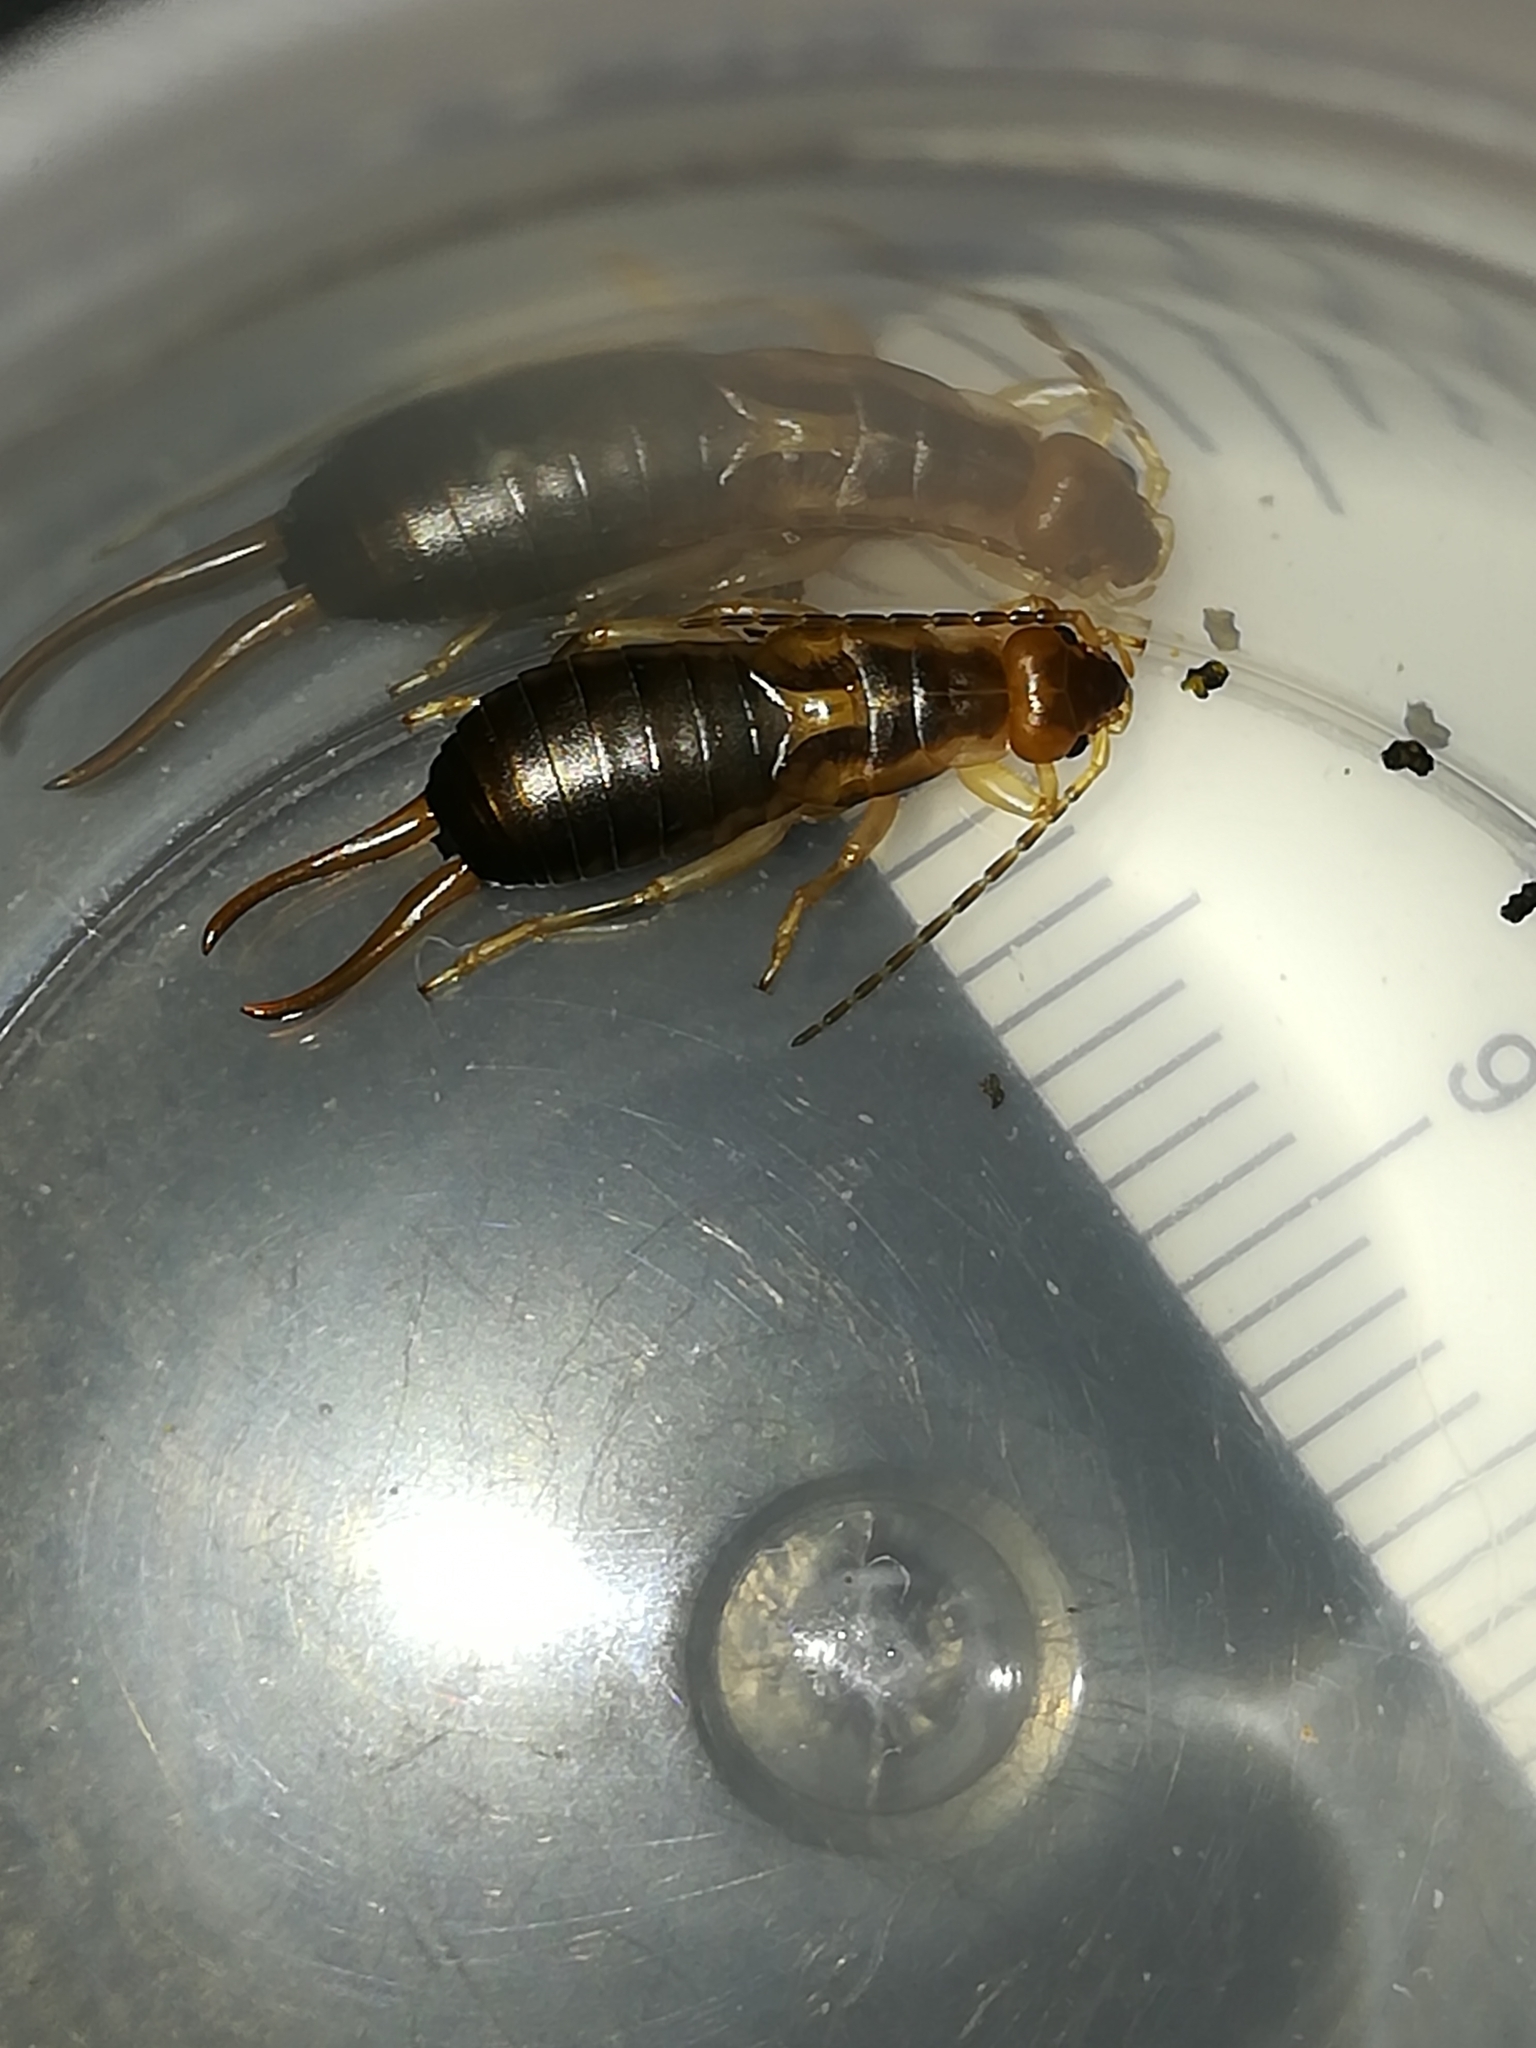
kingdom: Animalia
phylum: Arthropoda
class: Insecta
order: Dermaptera
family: Forficulidae
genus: Forficula
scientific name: Forficula
